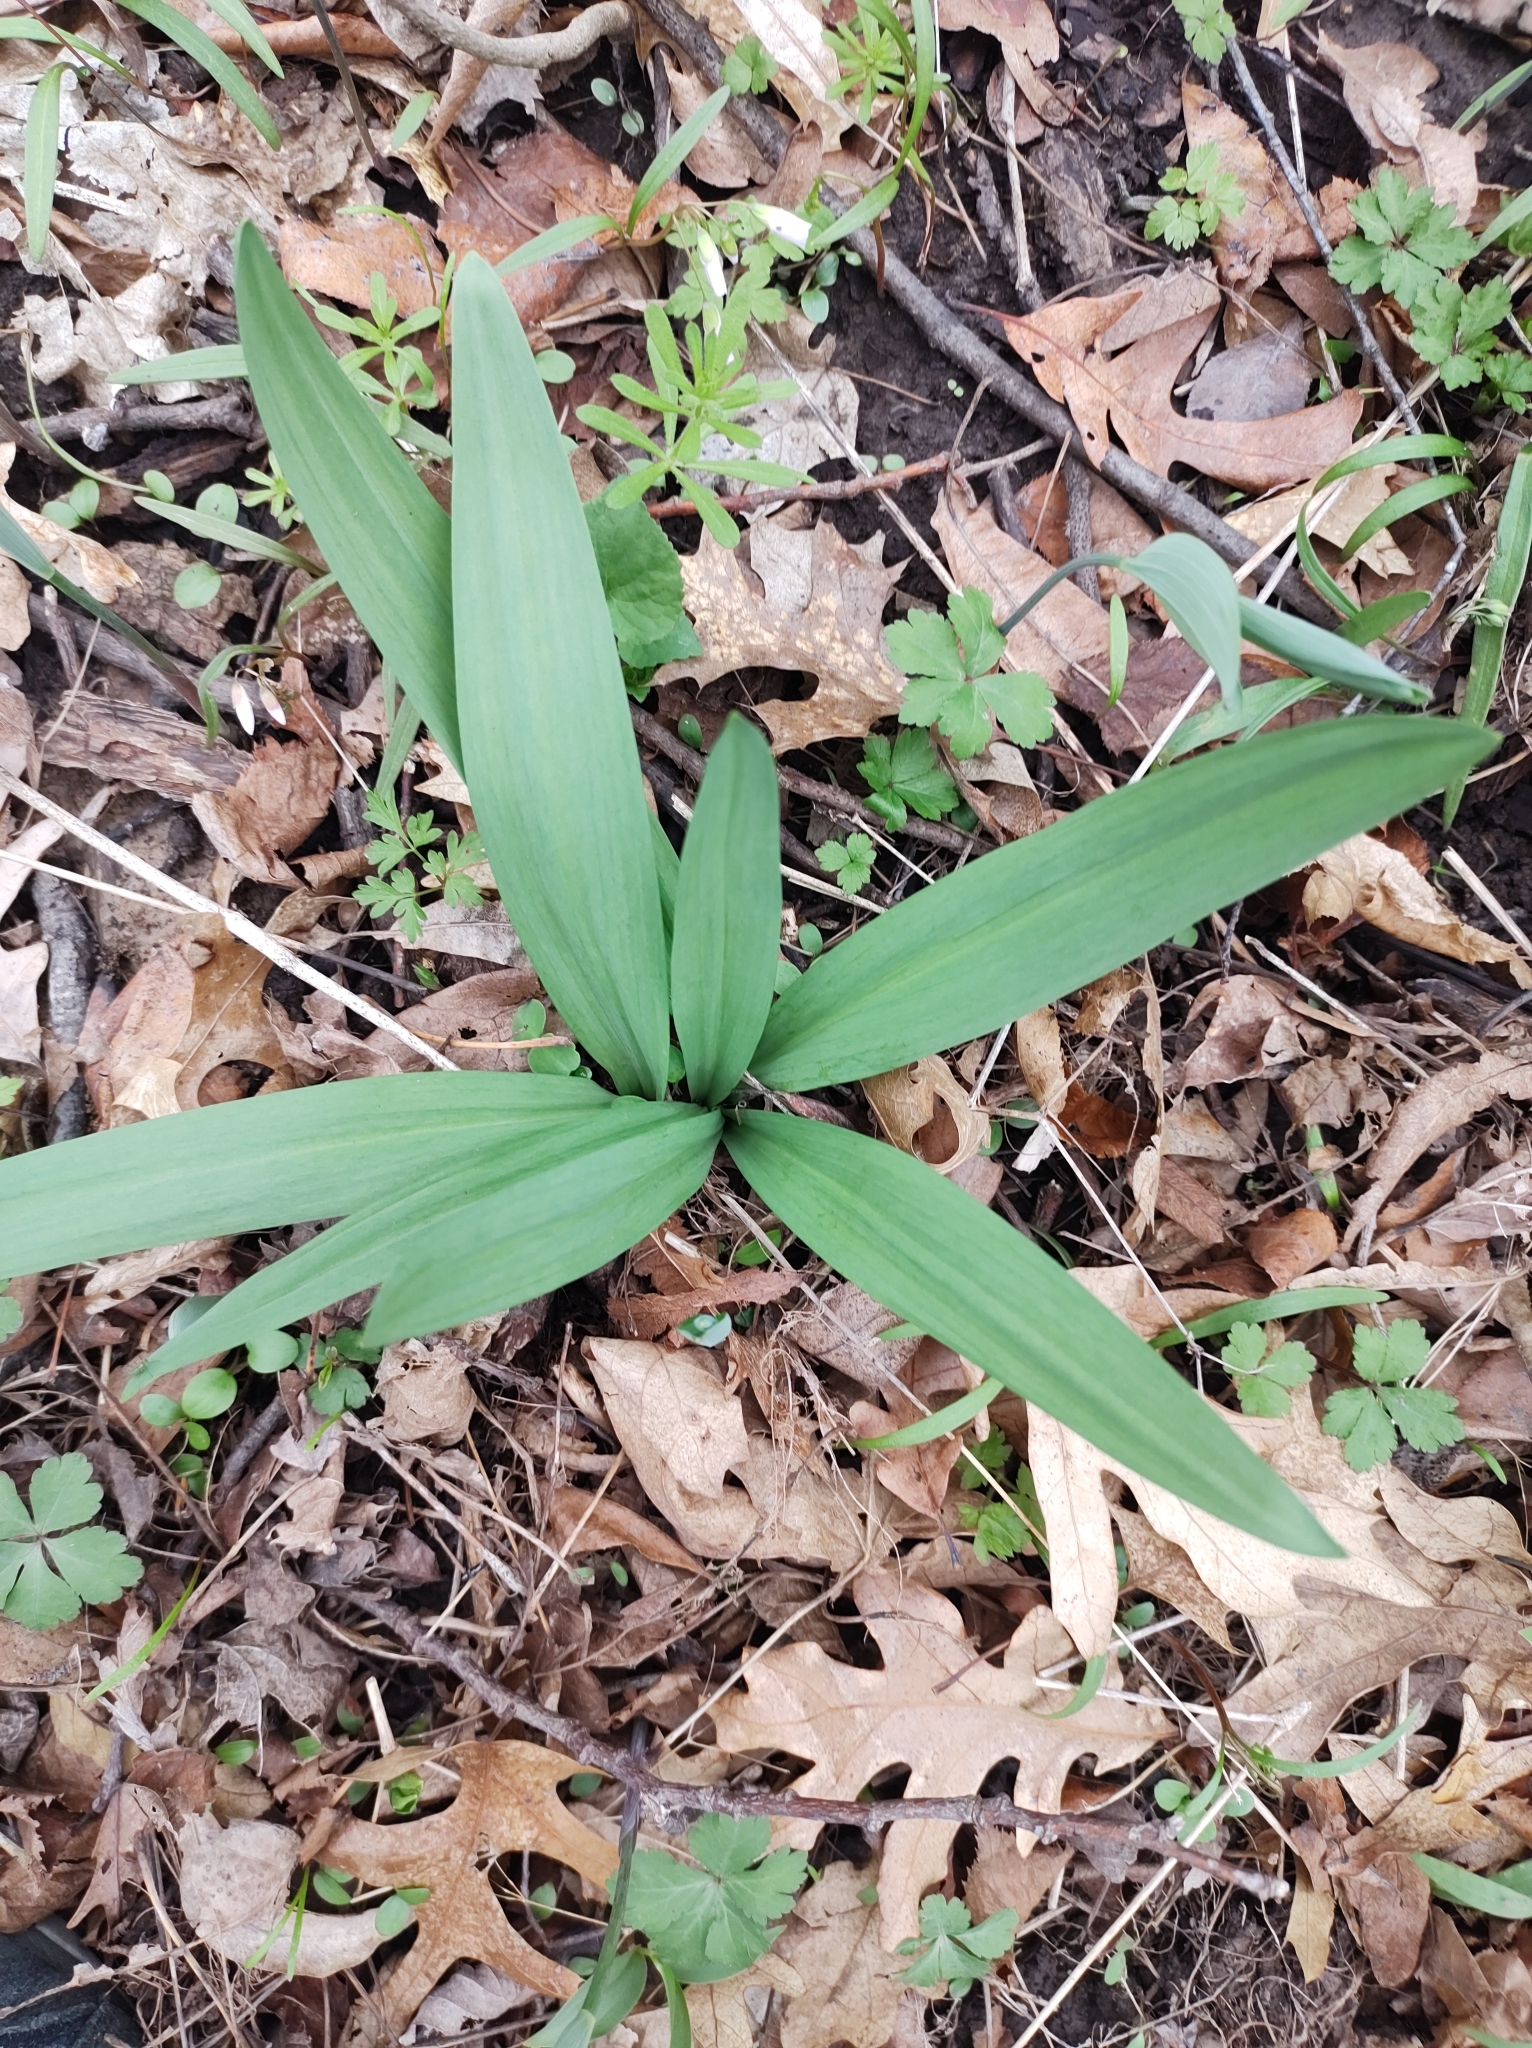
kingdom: Plantae
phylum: Tracheophyta
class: Liliopsida
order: Asparagales
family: Amaryllidaceae
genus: Allium
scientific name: Allium tricoccum
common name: Ramp
